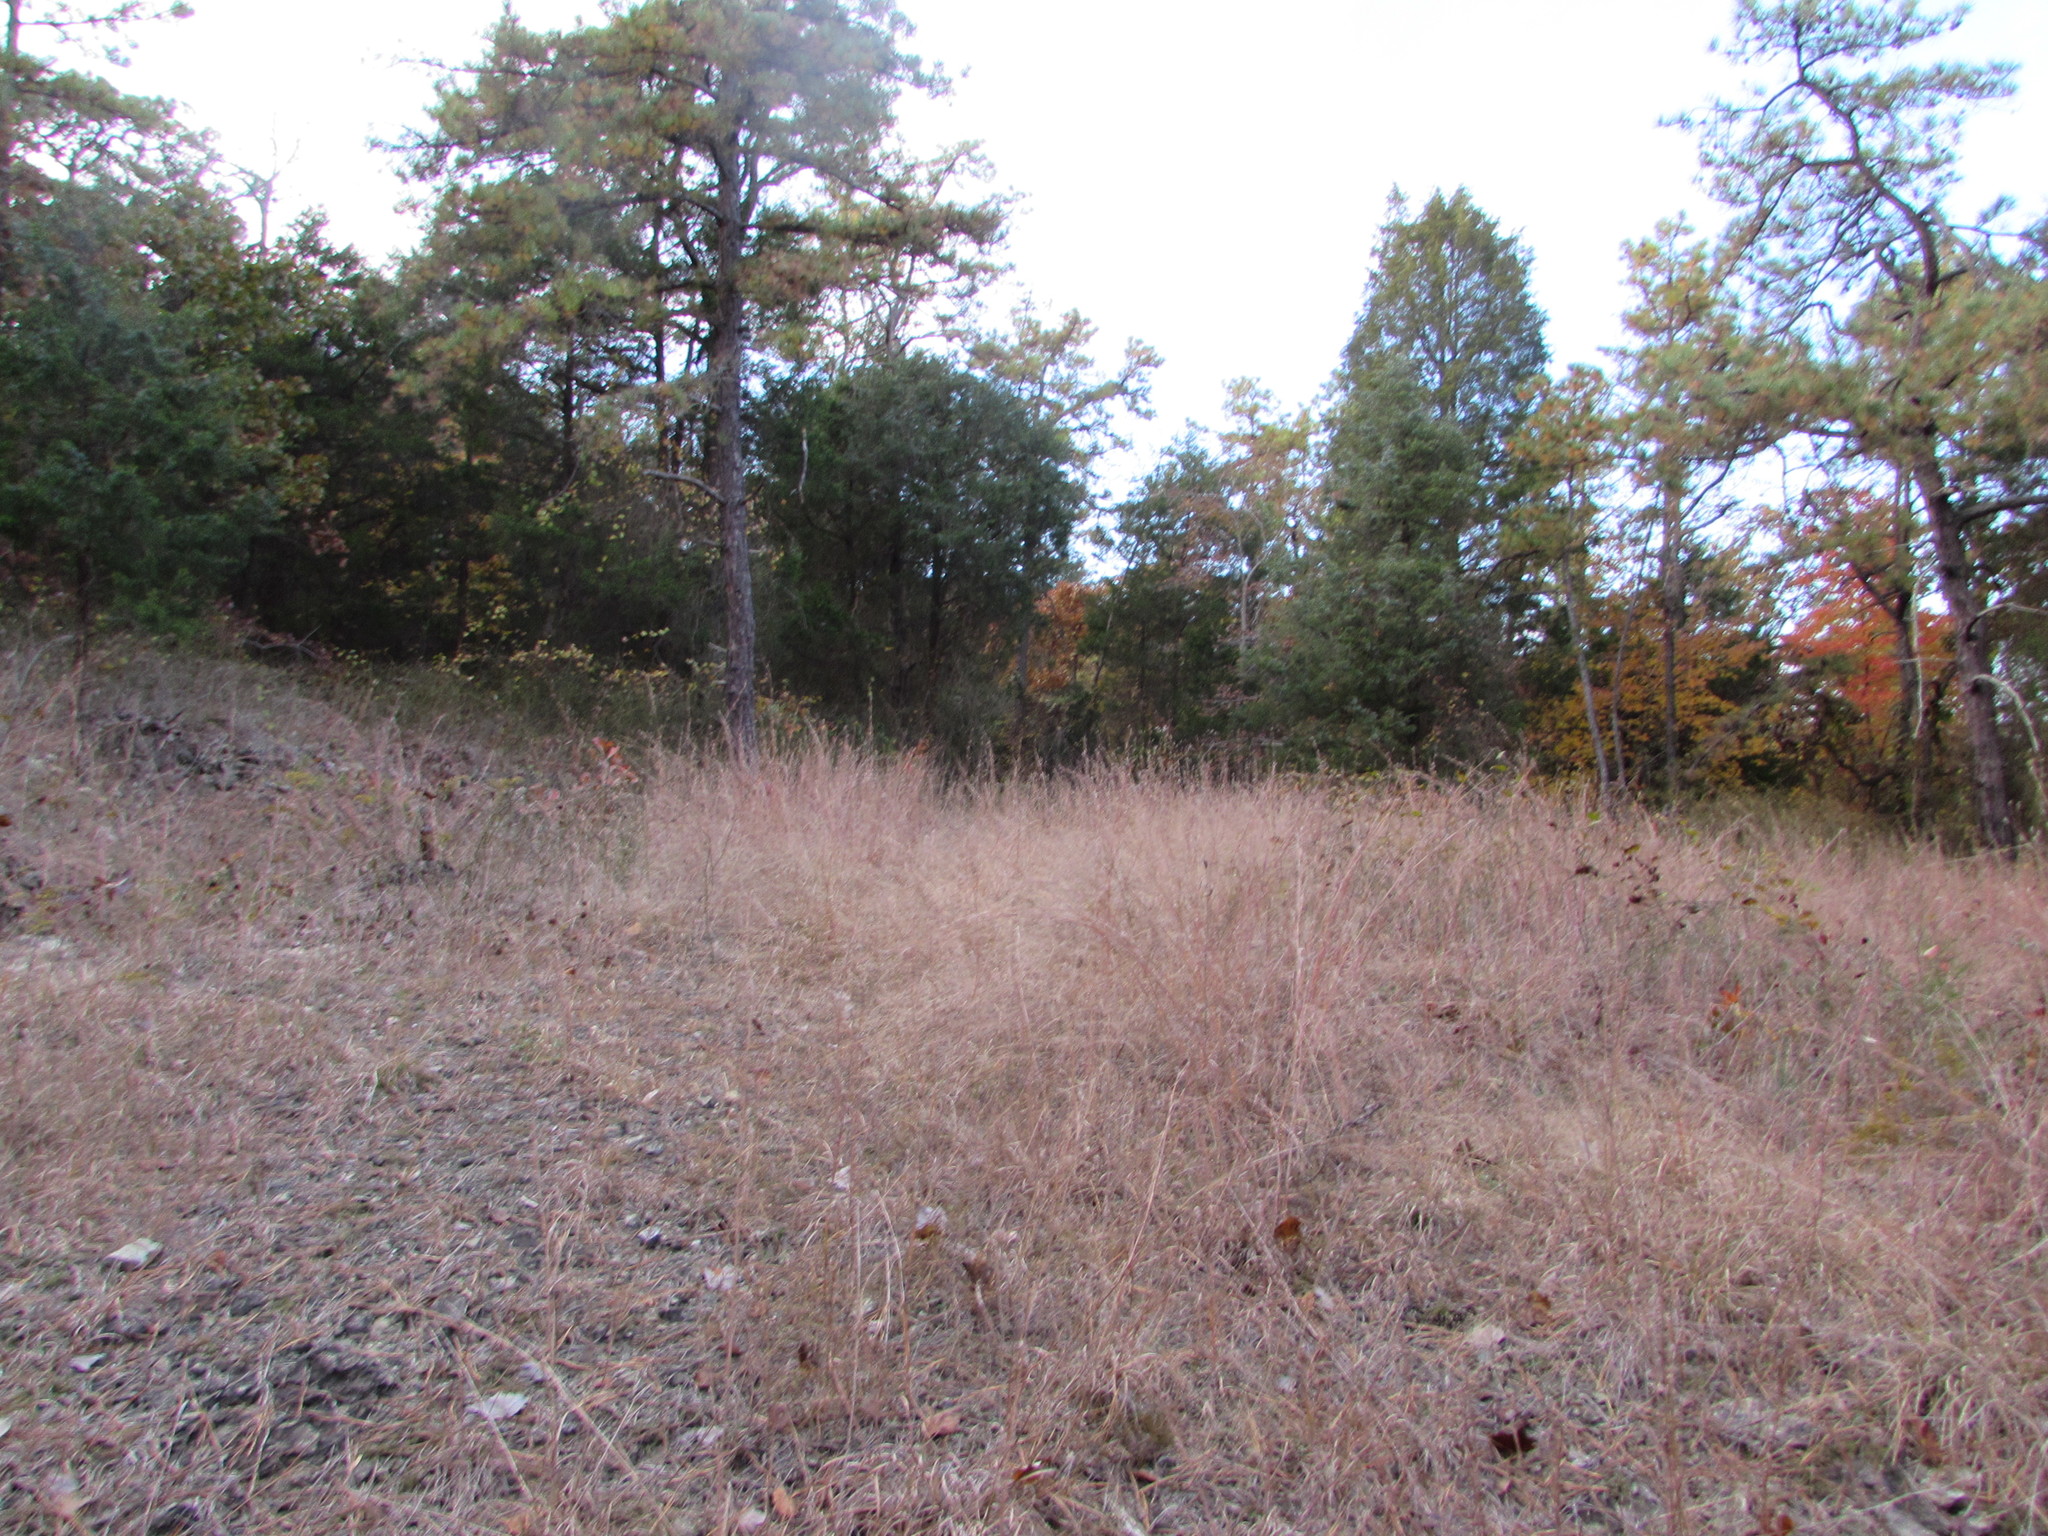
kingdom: Plantae
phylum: Tracheophyta
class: Liliopsida
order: Poales
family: Poaceae
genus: Schizachyrium
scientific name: Schizachyrium scoparium
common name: Little bluestem
